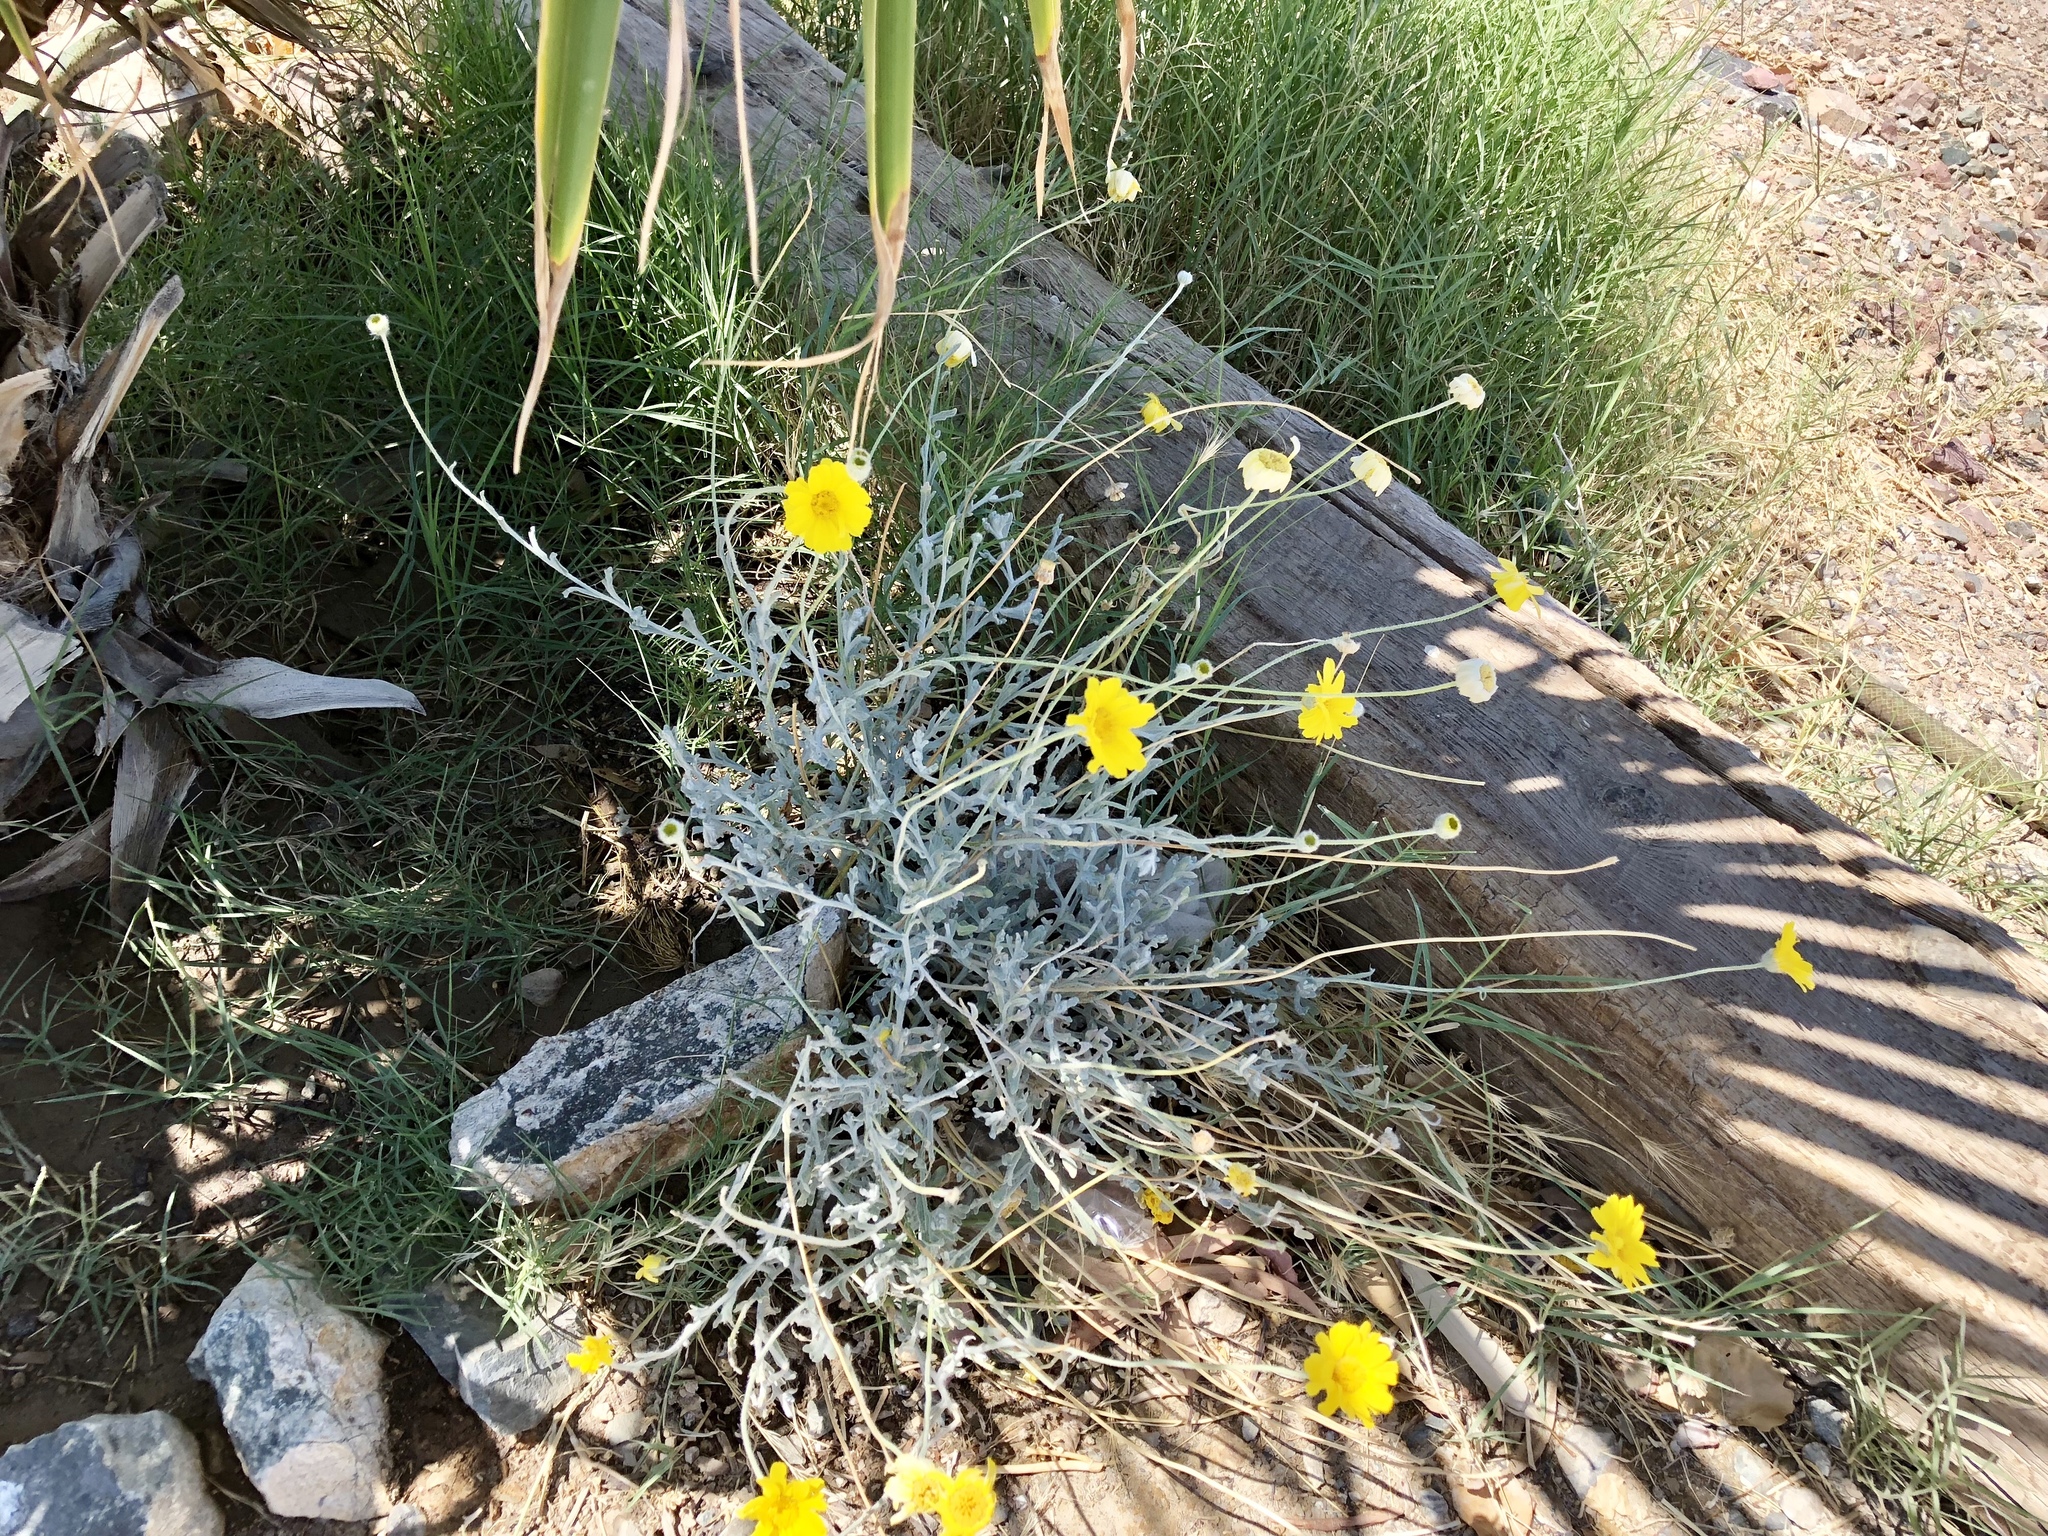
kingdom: Plantae
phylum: Tracheophyta
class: Magnoliopsida
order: Asterales
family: Asteraceae
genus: Baileya
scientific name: Baileya multiradiata
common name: Desert-marigold
